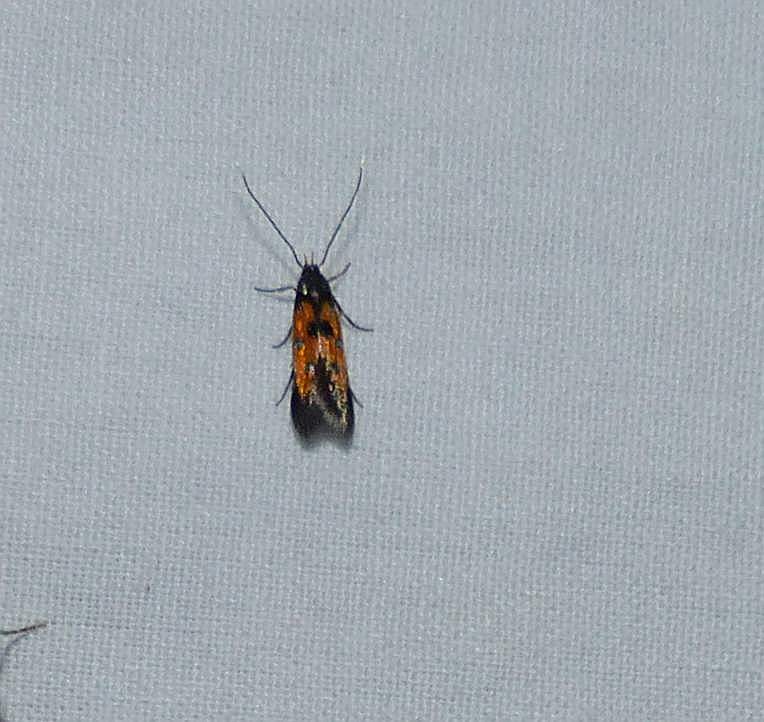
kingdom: Animalia
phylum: Arthropoda
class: Insecta
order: Lepidoptera
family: Elachistidae
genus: Chrysoclista
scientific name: Chrysoclista linneela
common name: Lime cosmet
